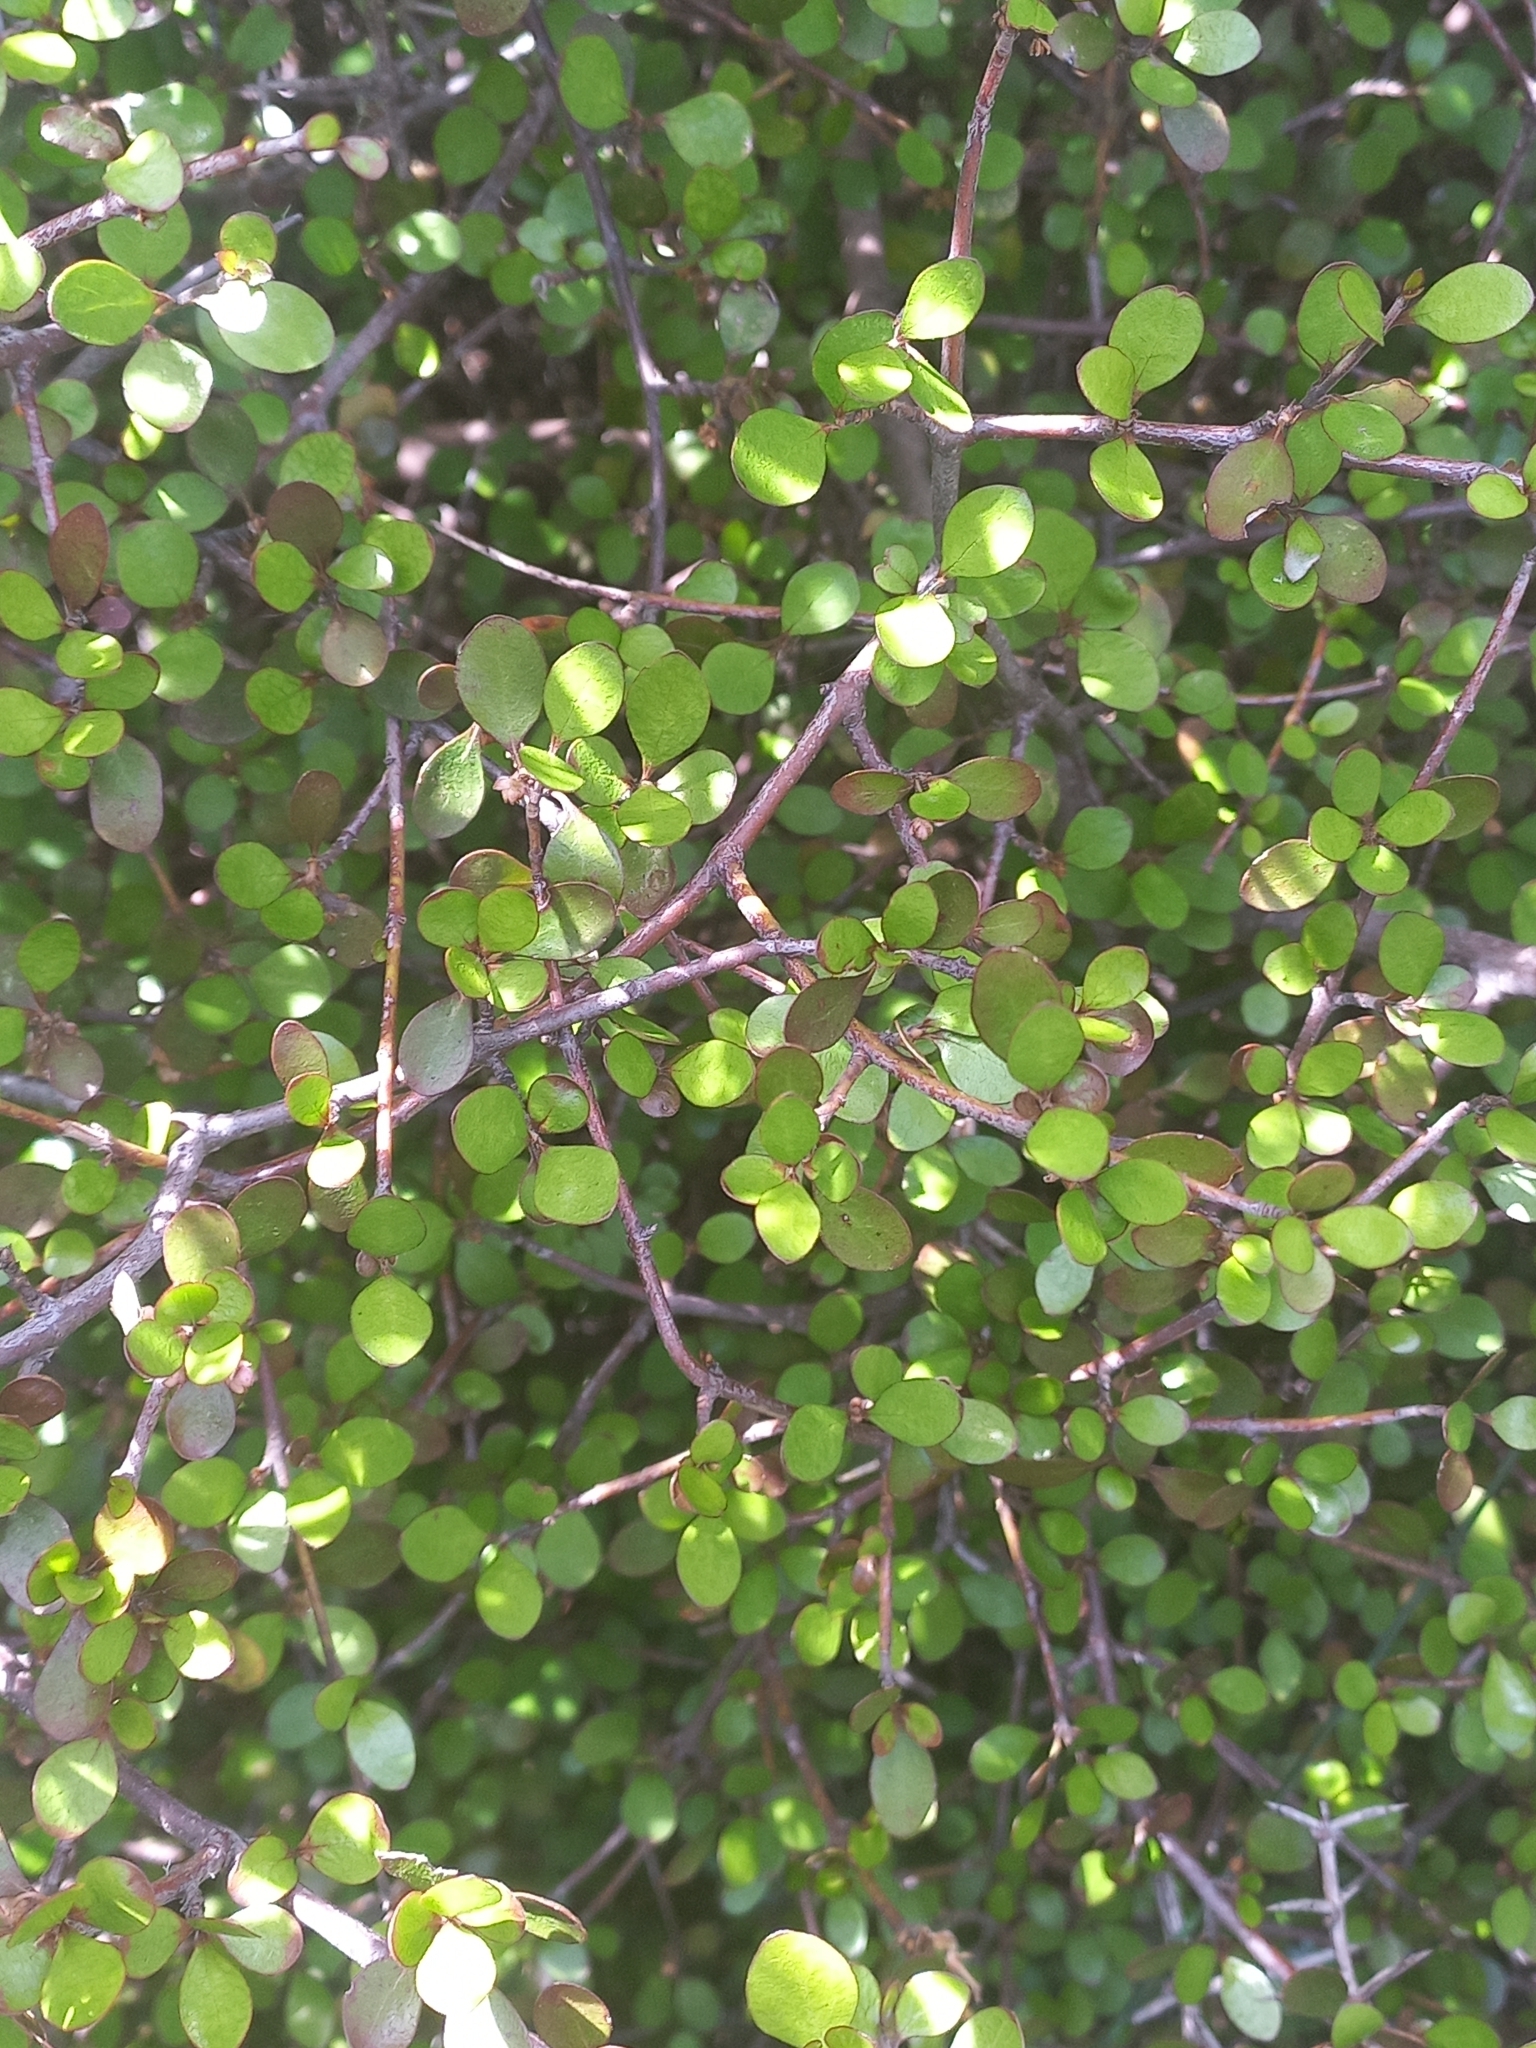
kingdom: Plantae
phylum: Tracheophyta
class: Magnoliopsida
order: Oxalidales
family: Elaeocarpaceae
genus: Aristotelia
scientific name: Aristotelia fruticosa
